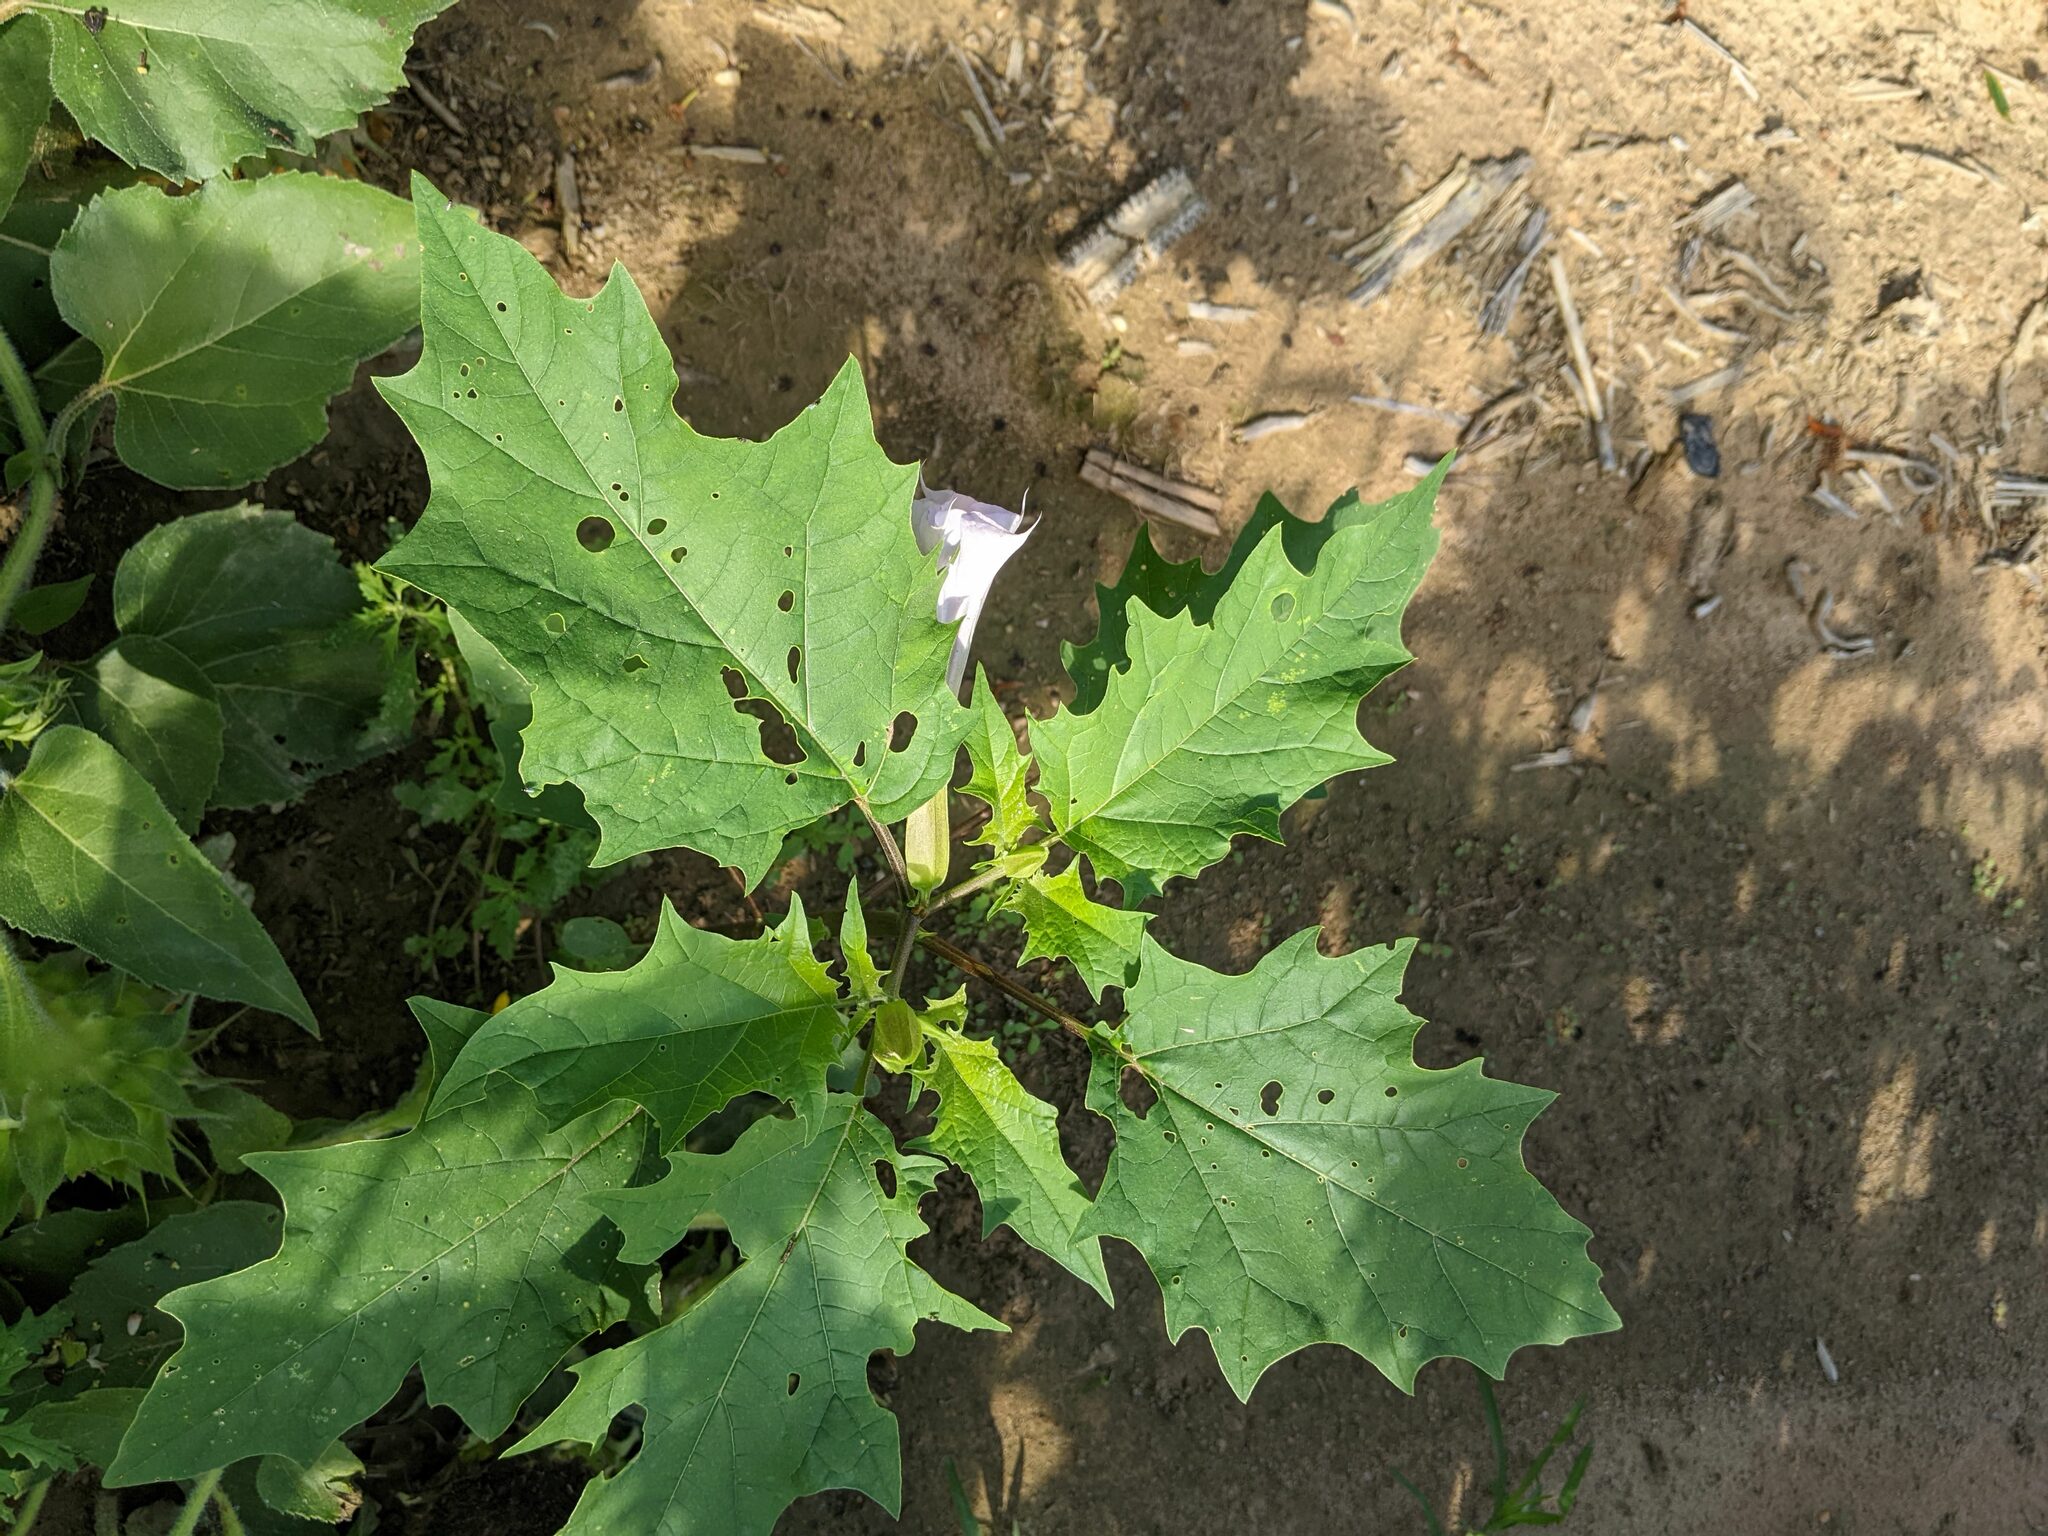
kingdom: Plantae
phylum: Tracheophyta
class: Magnoliopsida
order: Solanales
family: Solanaceae
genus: Datura
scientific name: Datura stramonium
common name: Thorn-apple
